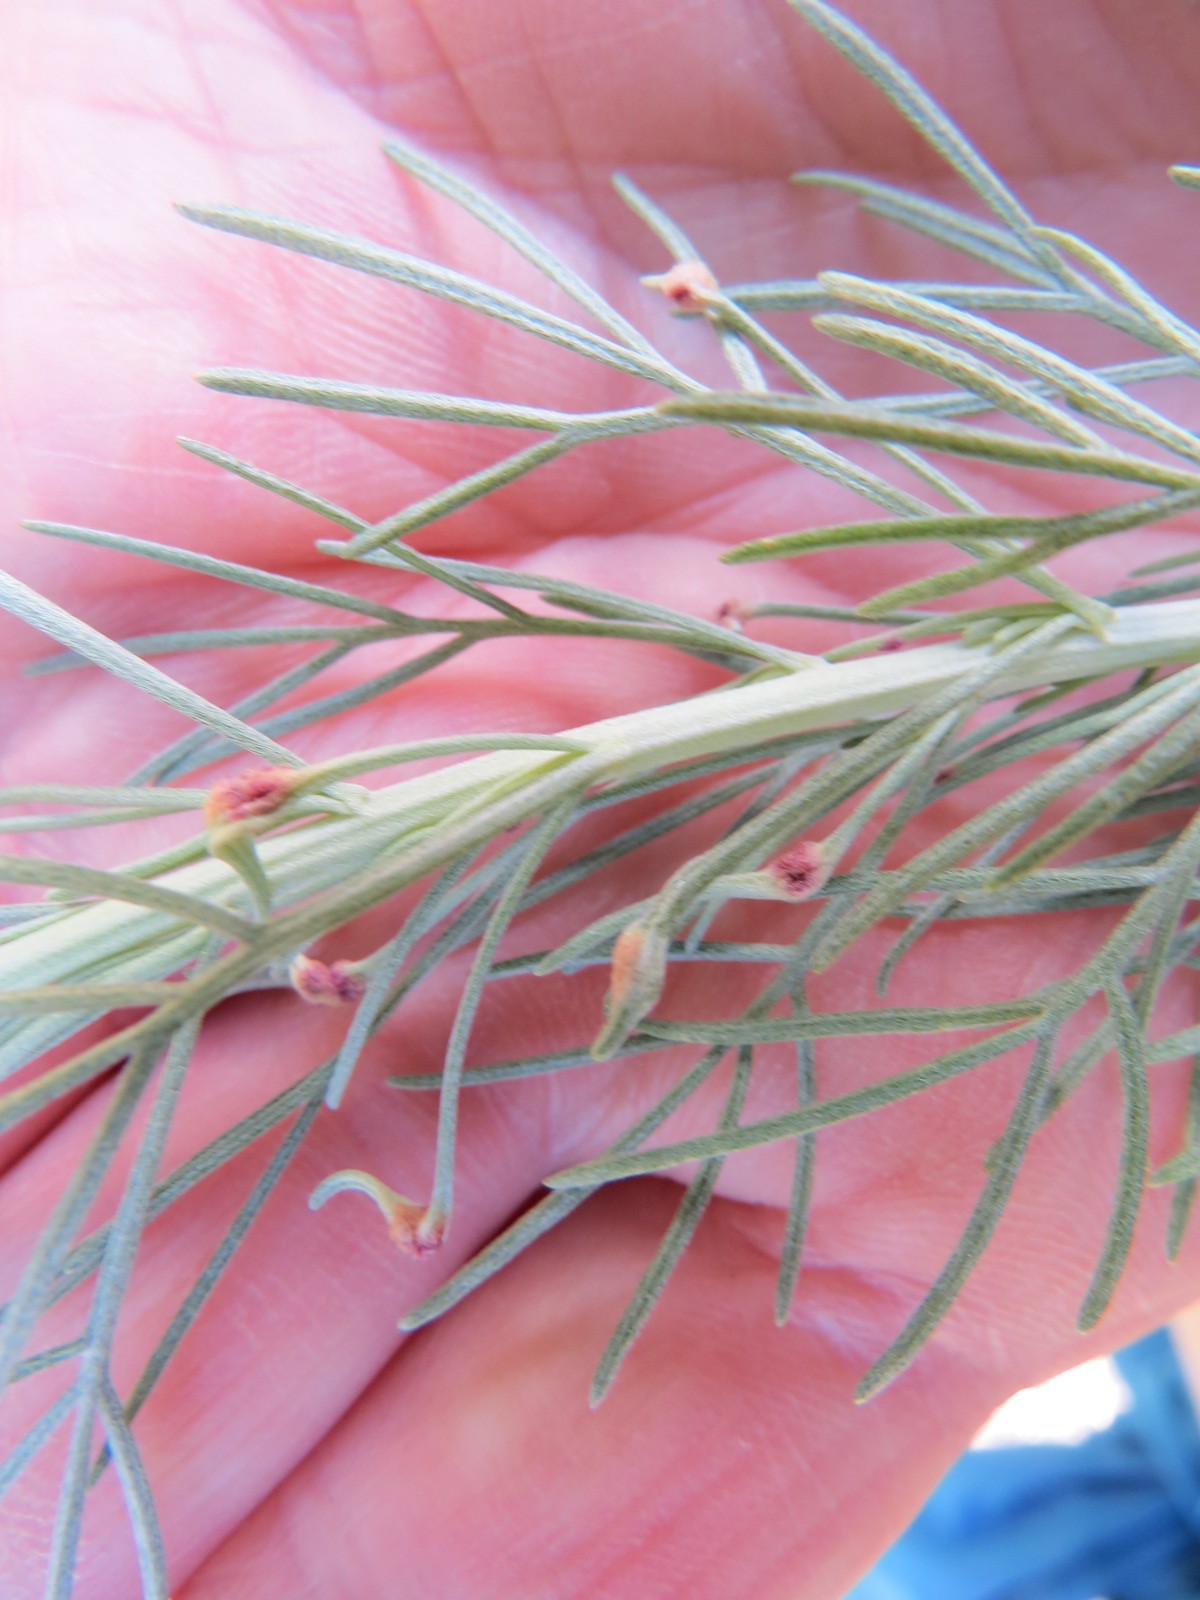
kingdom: Animalia
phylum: Arthropoda
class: Arachnida
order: Trombidiformes
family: Eriophyidae
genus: Aceria
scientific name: Aceria
